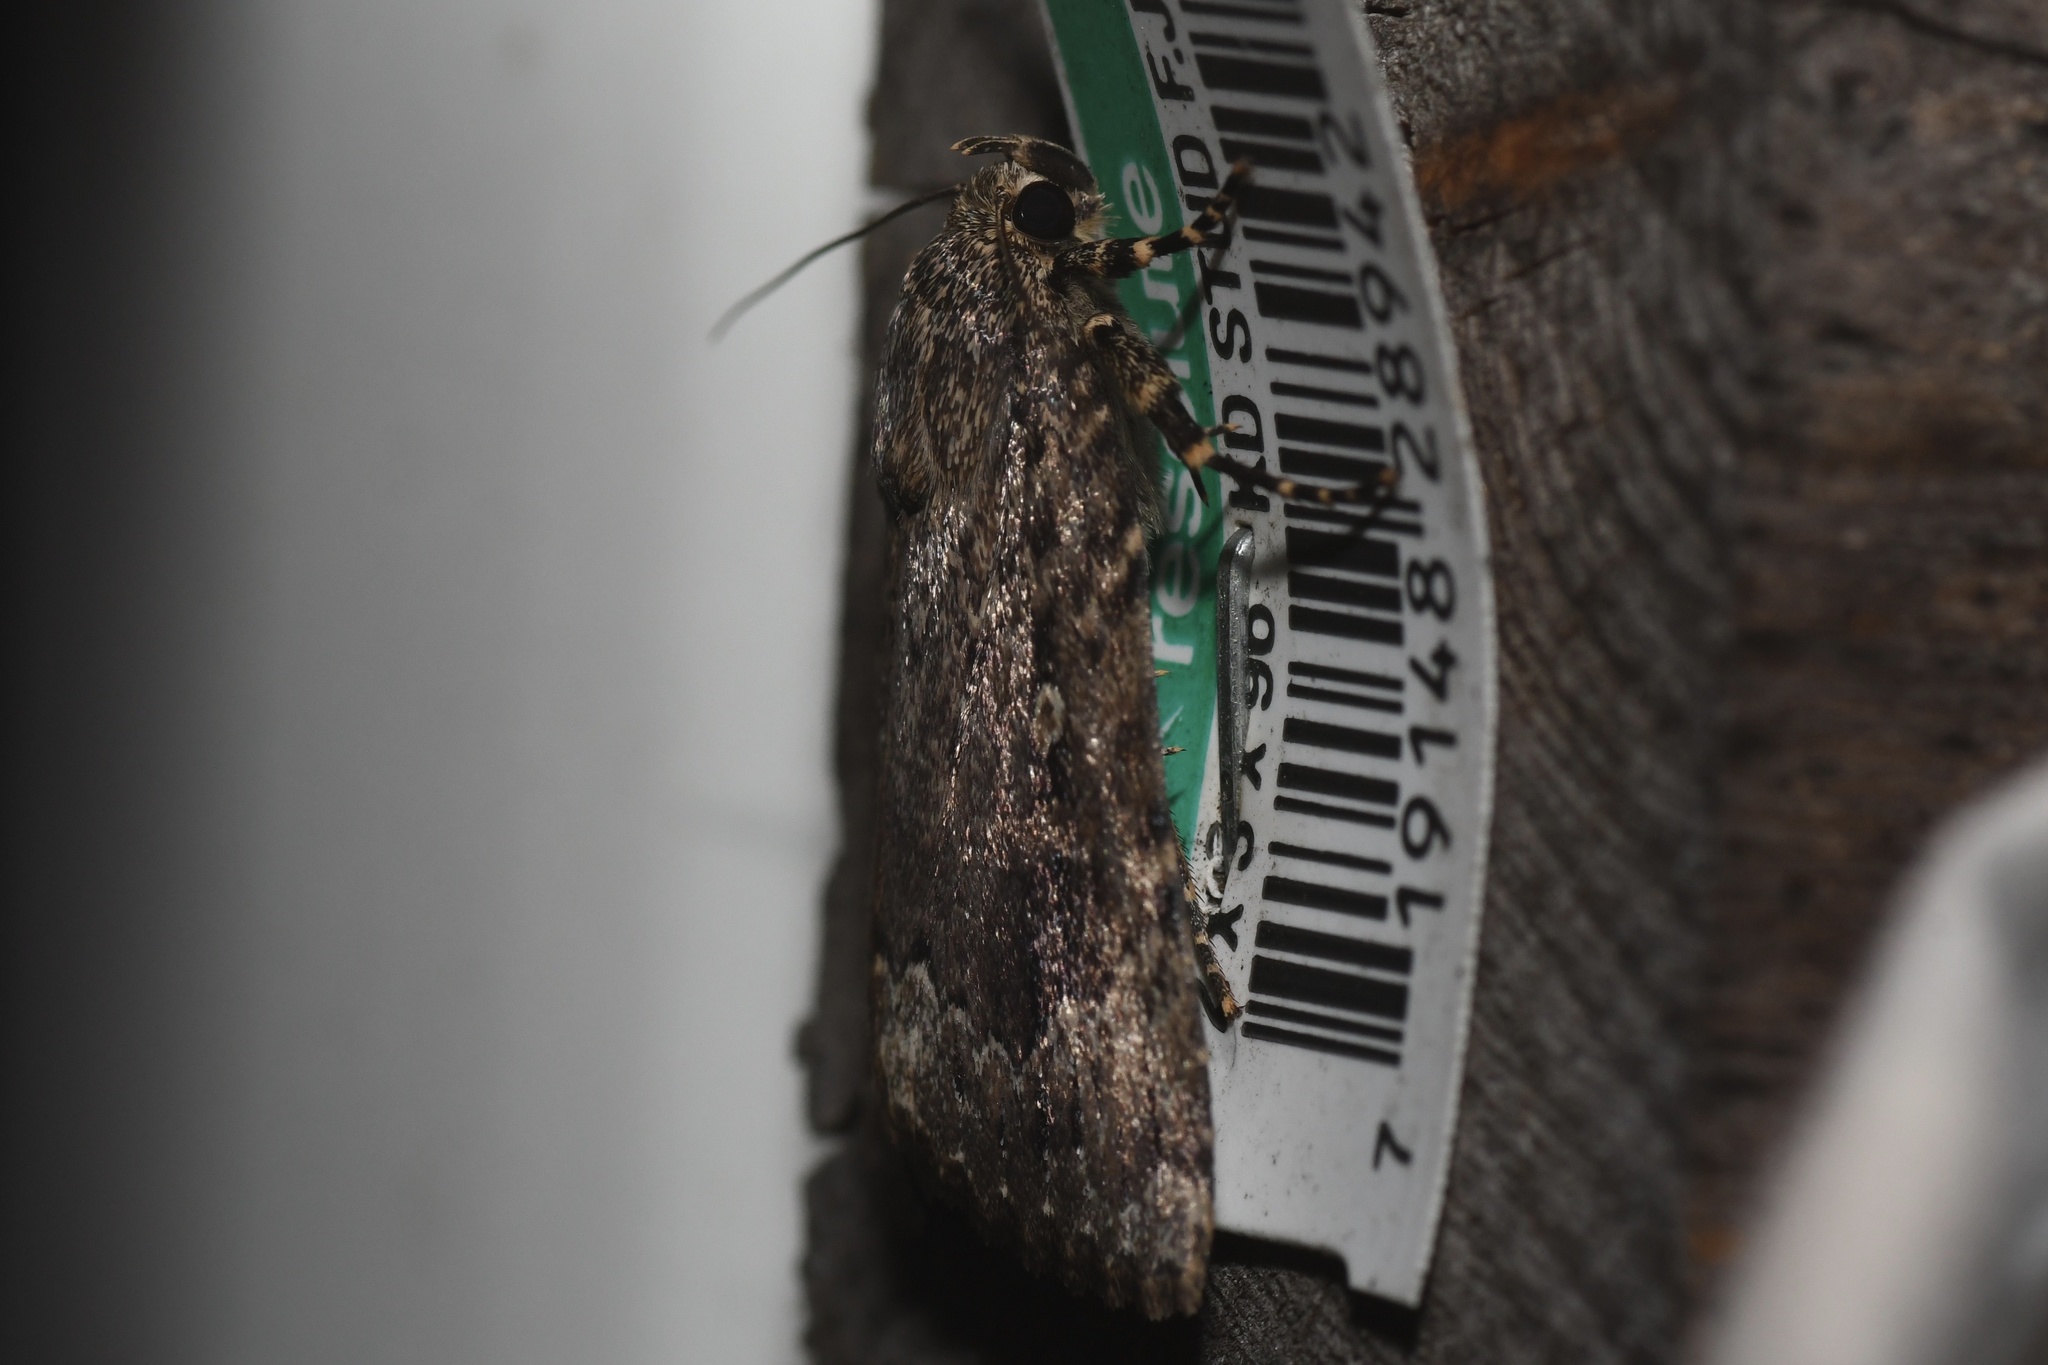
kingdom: Animalia
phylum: Arthropoda
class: Insecta
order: Lepidoptera
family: Noctuidae
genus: Amphipyra
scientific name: Amphipyra pyramidoides
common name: American copper underwing
